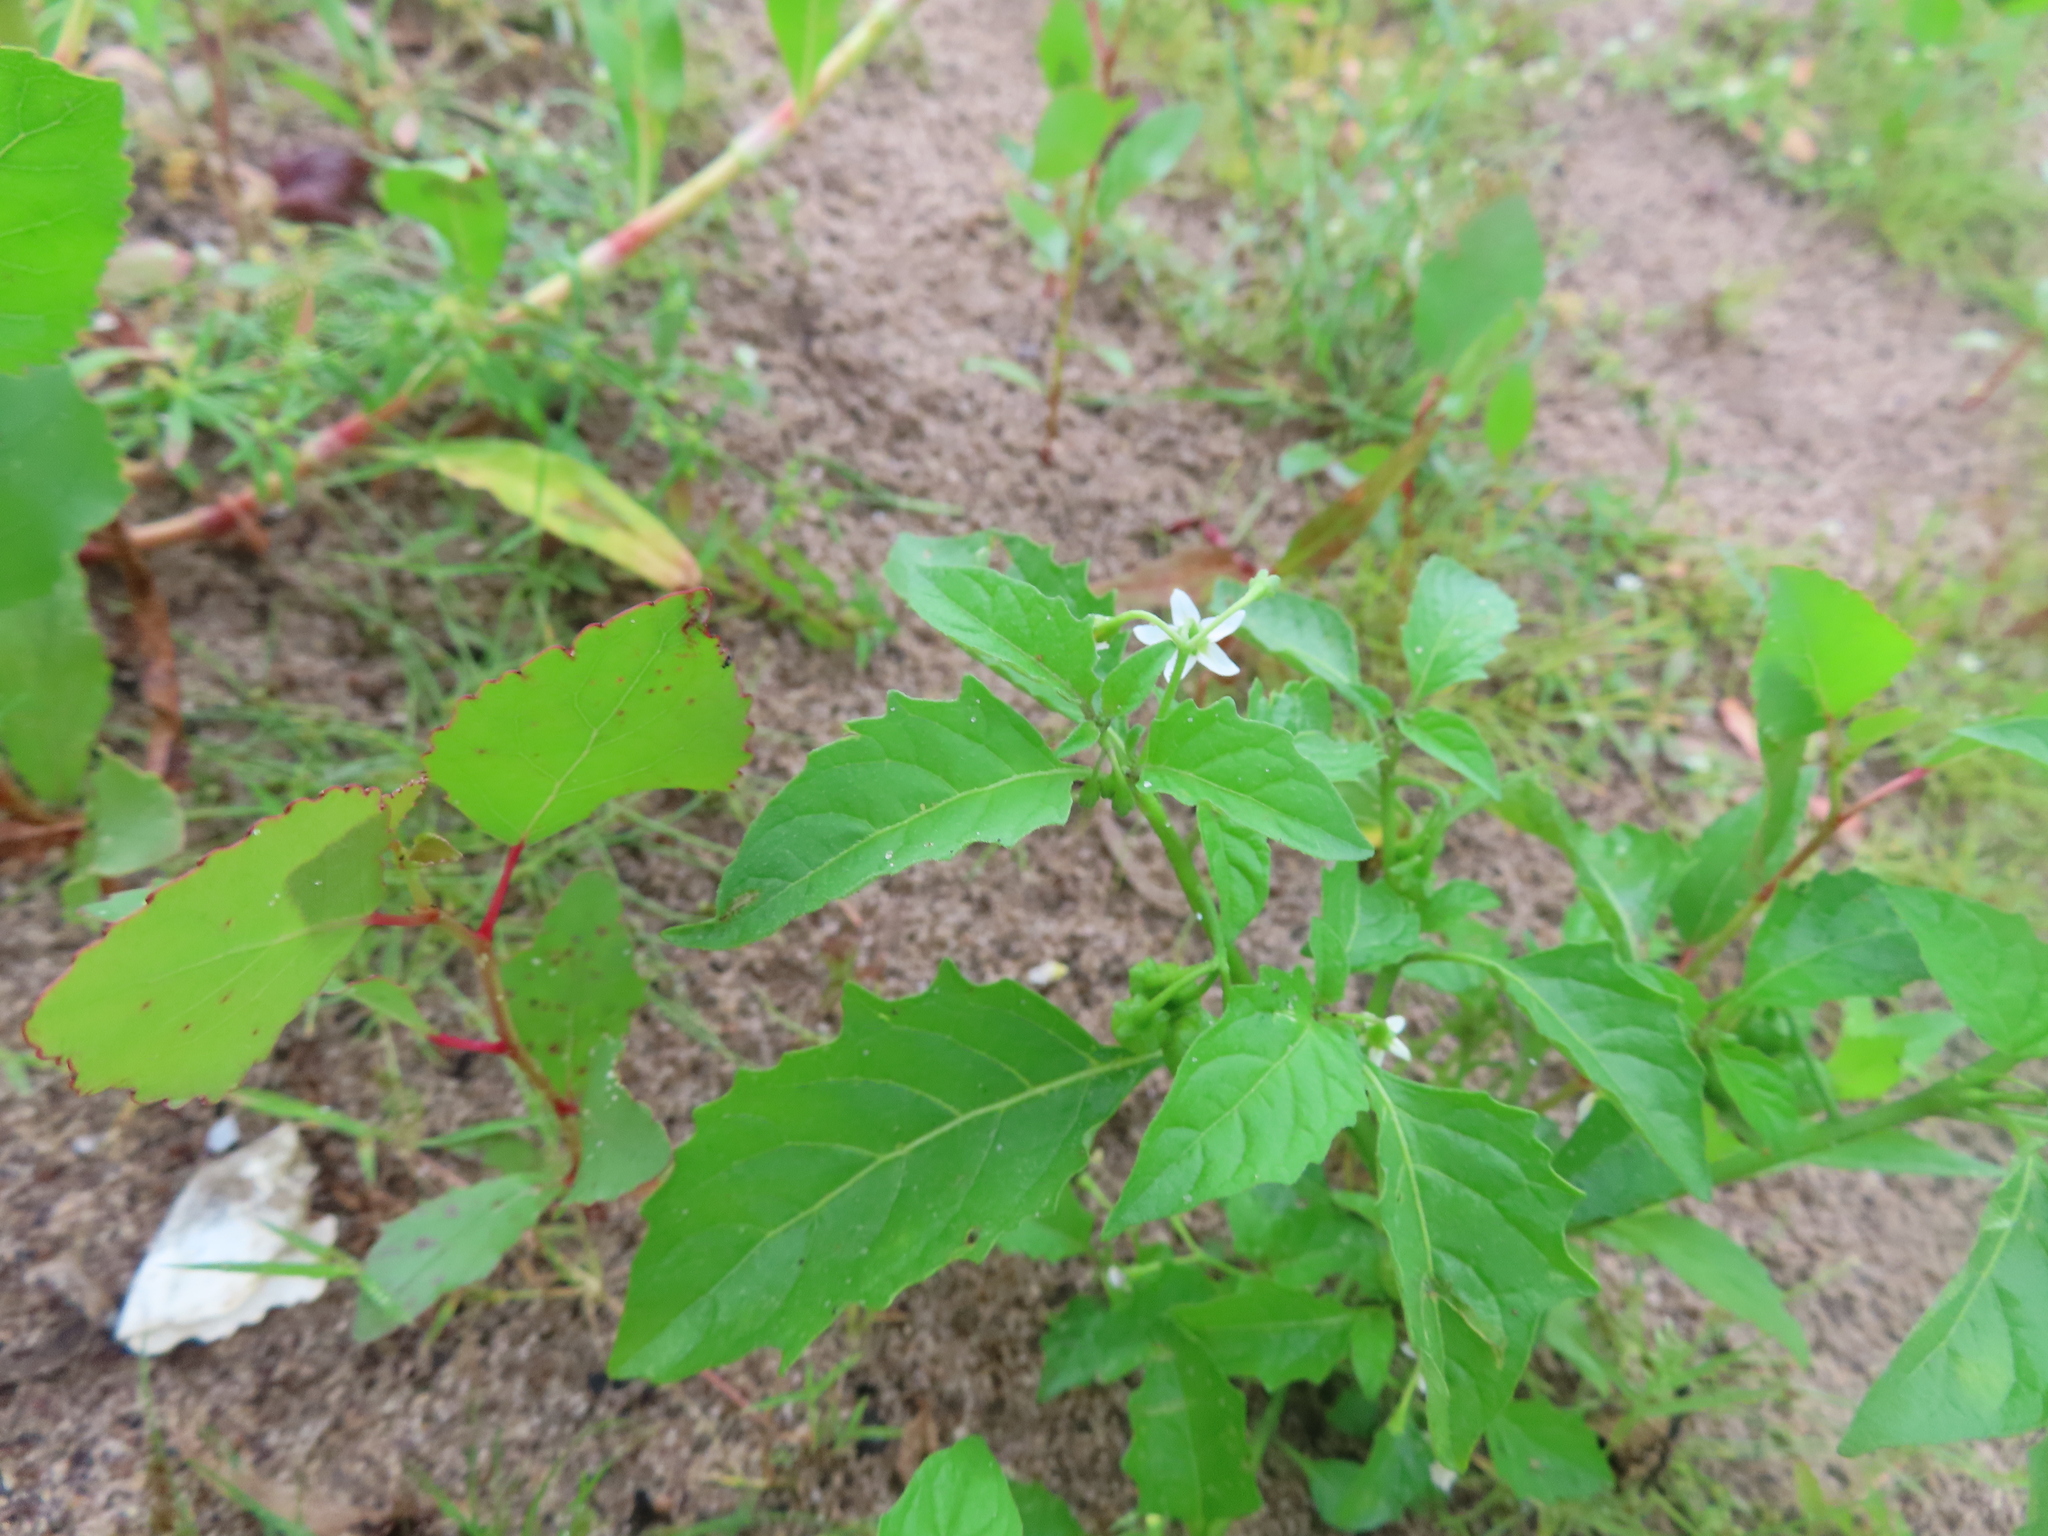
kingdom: Plantae
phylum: Tracheophyta
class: Magnoliopsida
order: Solanales
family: Solanaceae
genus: Solanum
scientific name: Solanum emulans
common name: Eastern black nightshade
